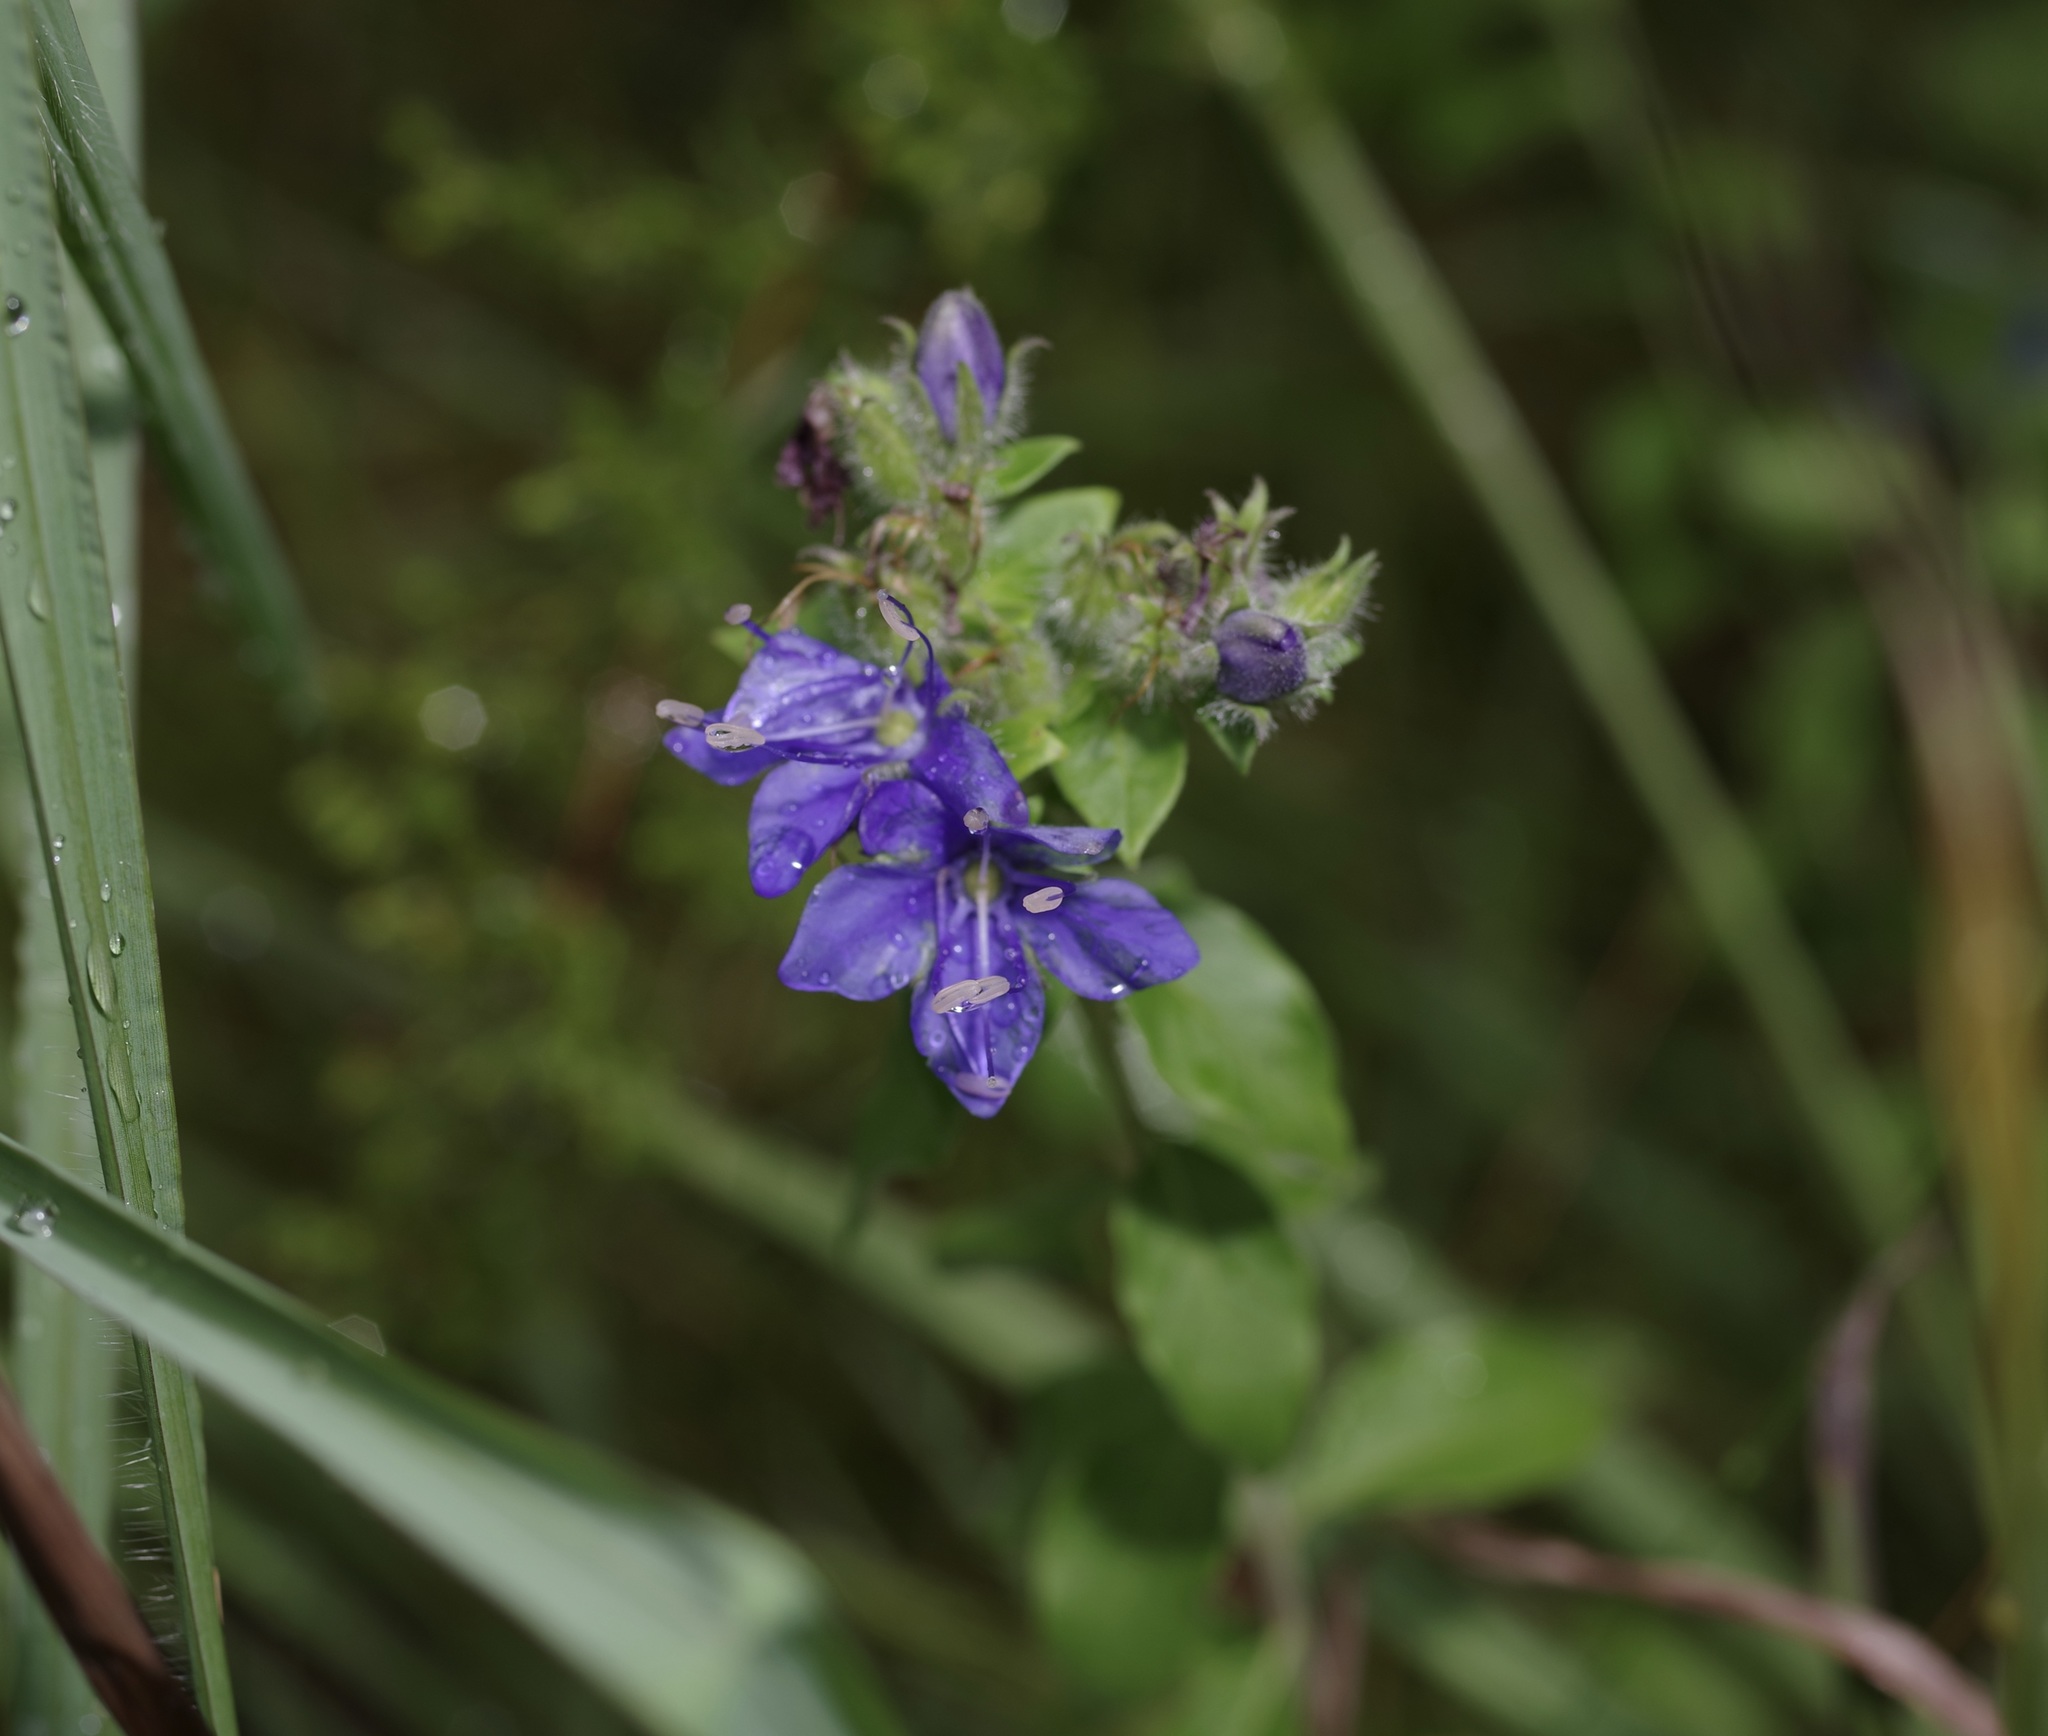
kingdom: Plantae
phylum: Tracheophyta
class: Magnoliopsida
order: Solanales
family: Hydroleaceae
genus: Hydrolea
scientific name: Hydrolea ovata
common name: Ovate false fiddleleaf
